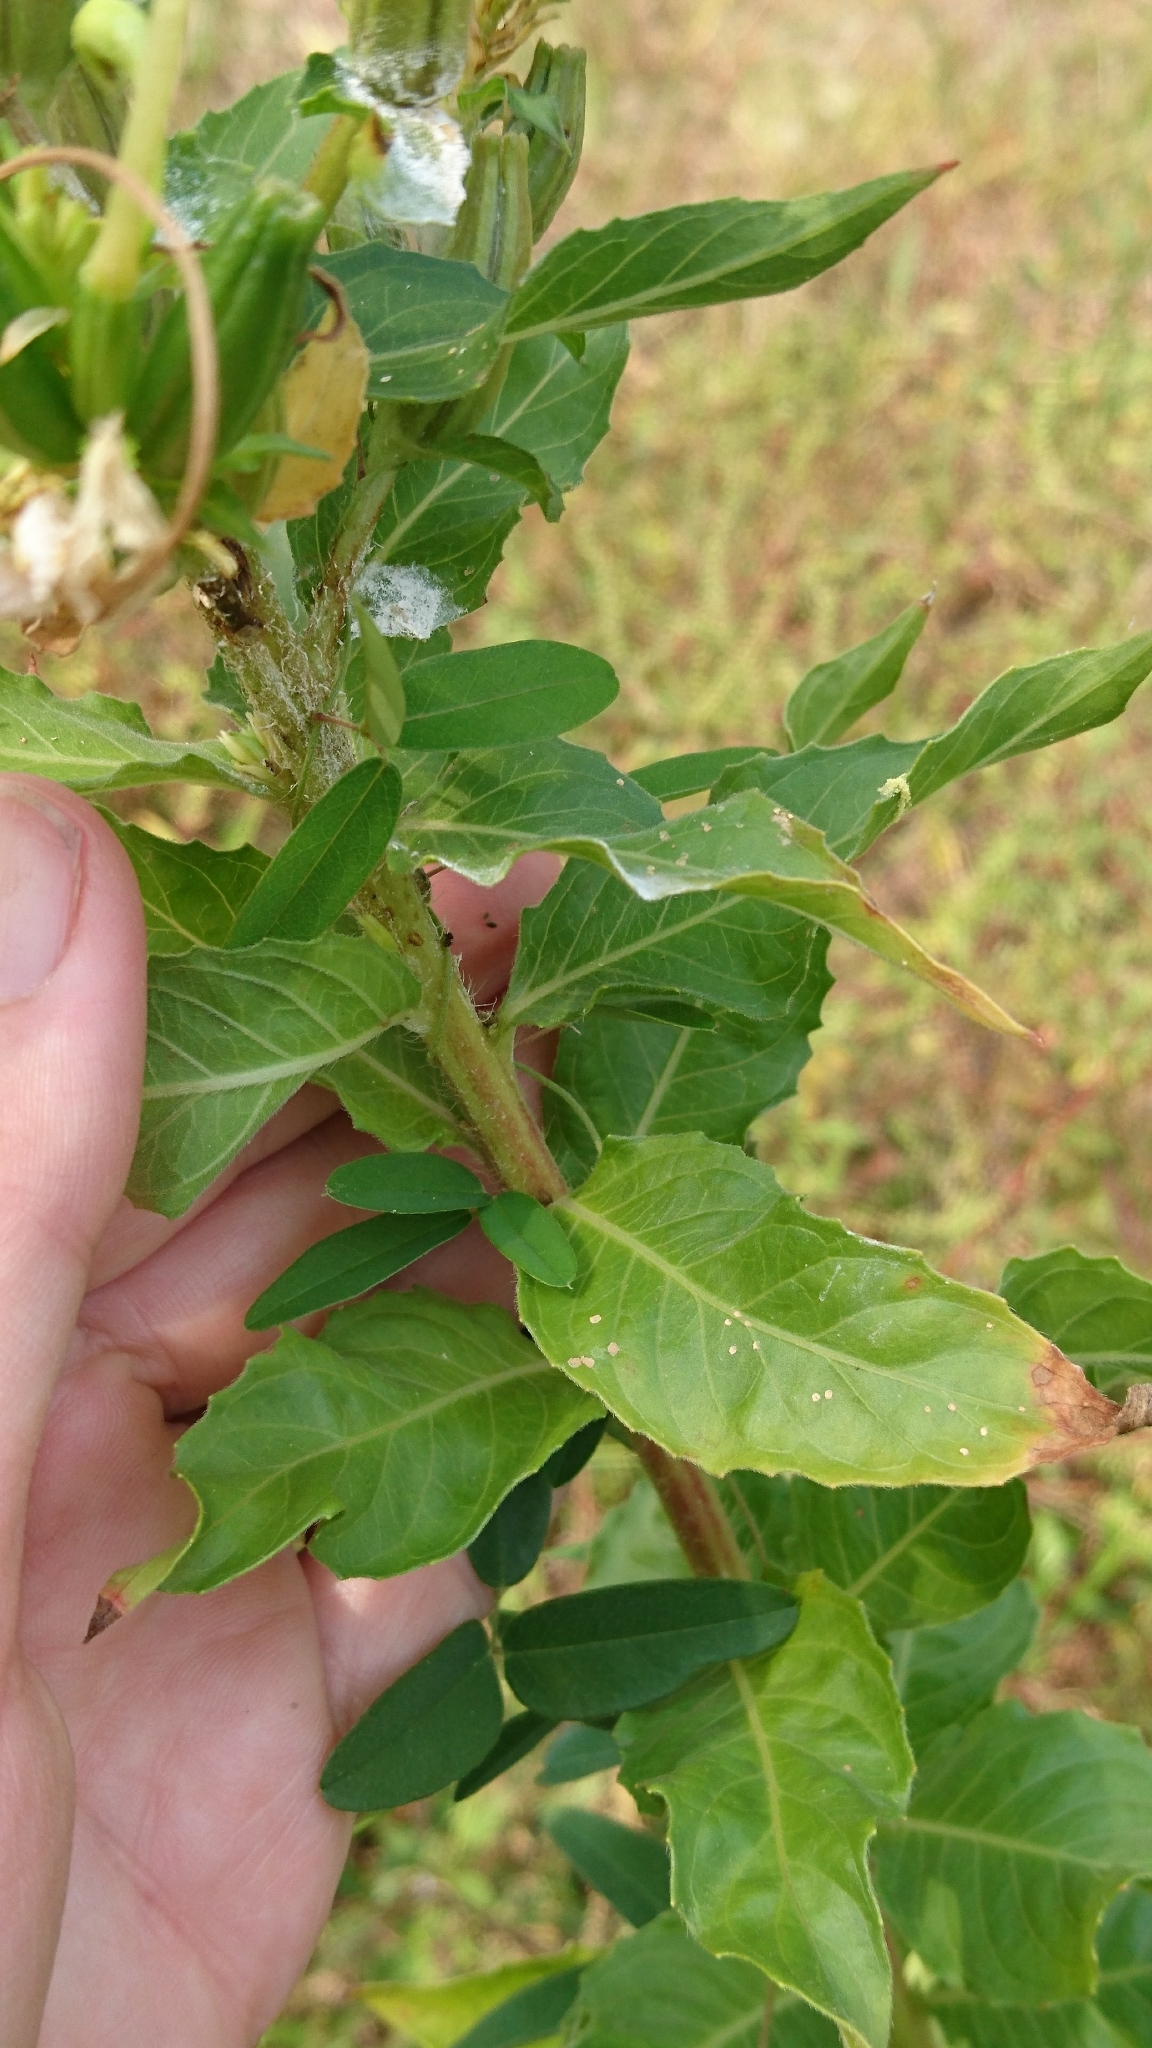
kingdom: Plantae
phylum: Tracheophyta
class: Magnoliopsida
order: Myrtales
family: Onagraceae
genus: Oenothera
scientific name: Oenothera biennis
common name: Common evening-primrose
